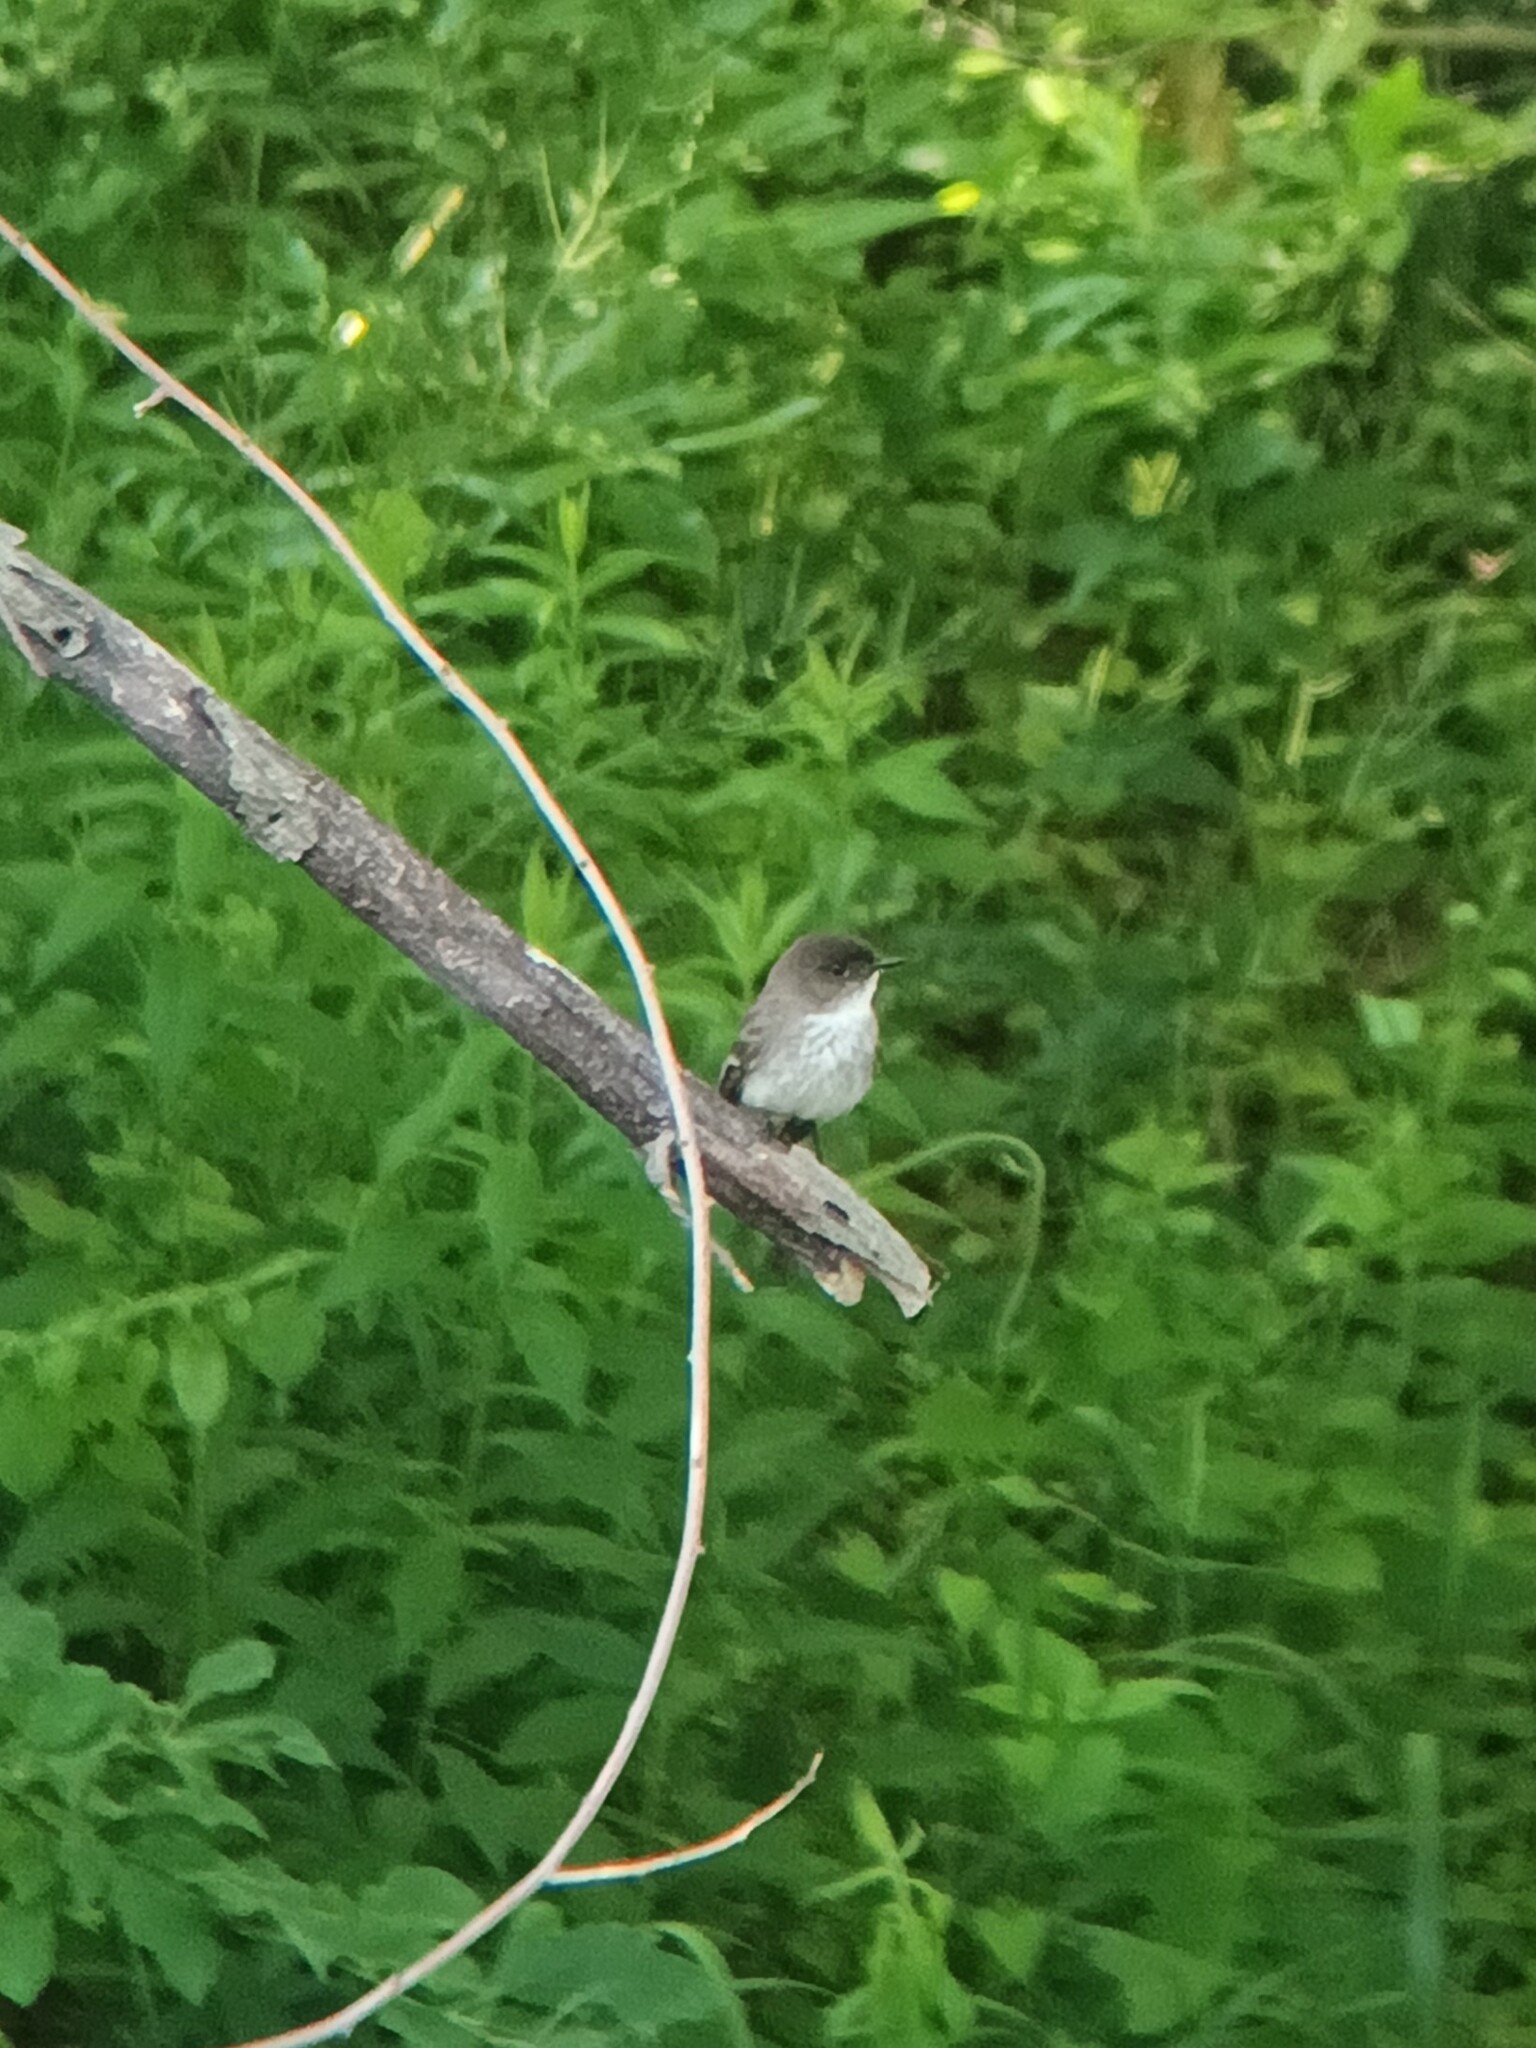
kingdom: Animalia
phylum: Chordata
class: Aves
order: Passeriformes
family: Tyrannidae
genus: Sayornis
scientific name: Sayornis phoebe
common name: Eastern phoebe
